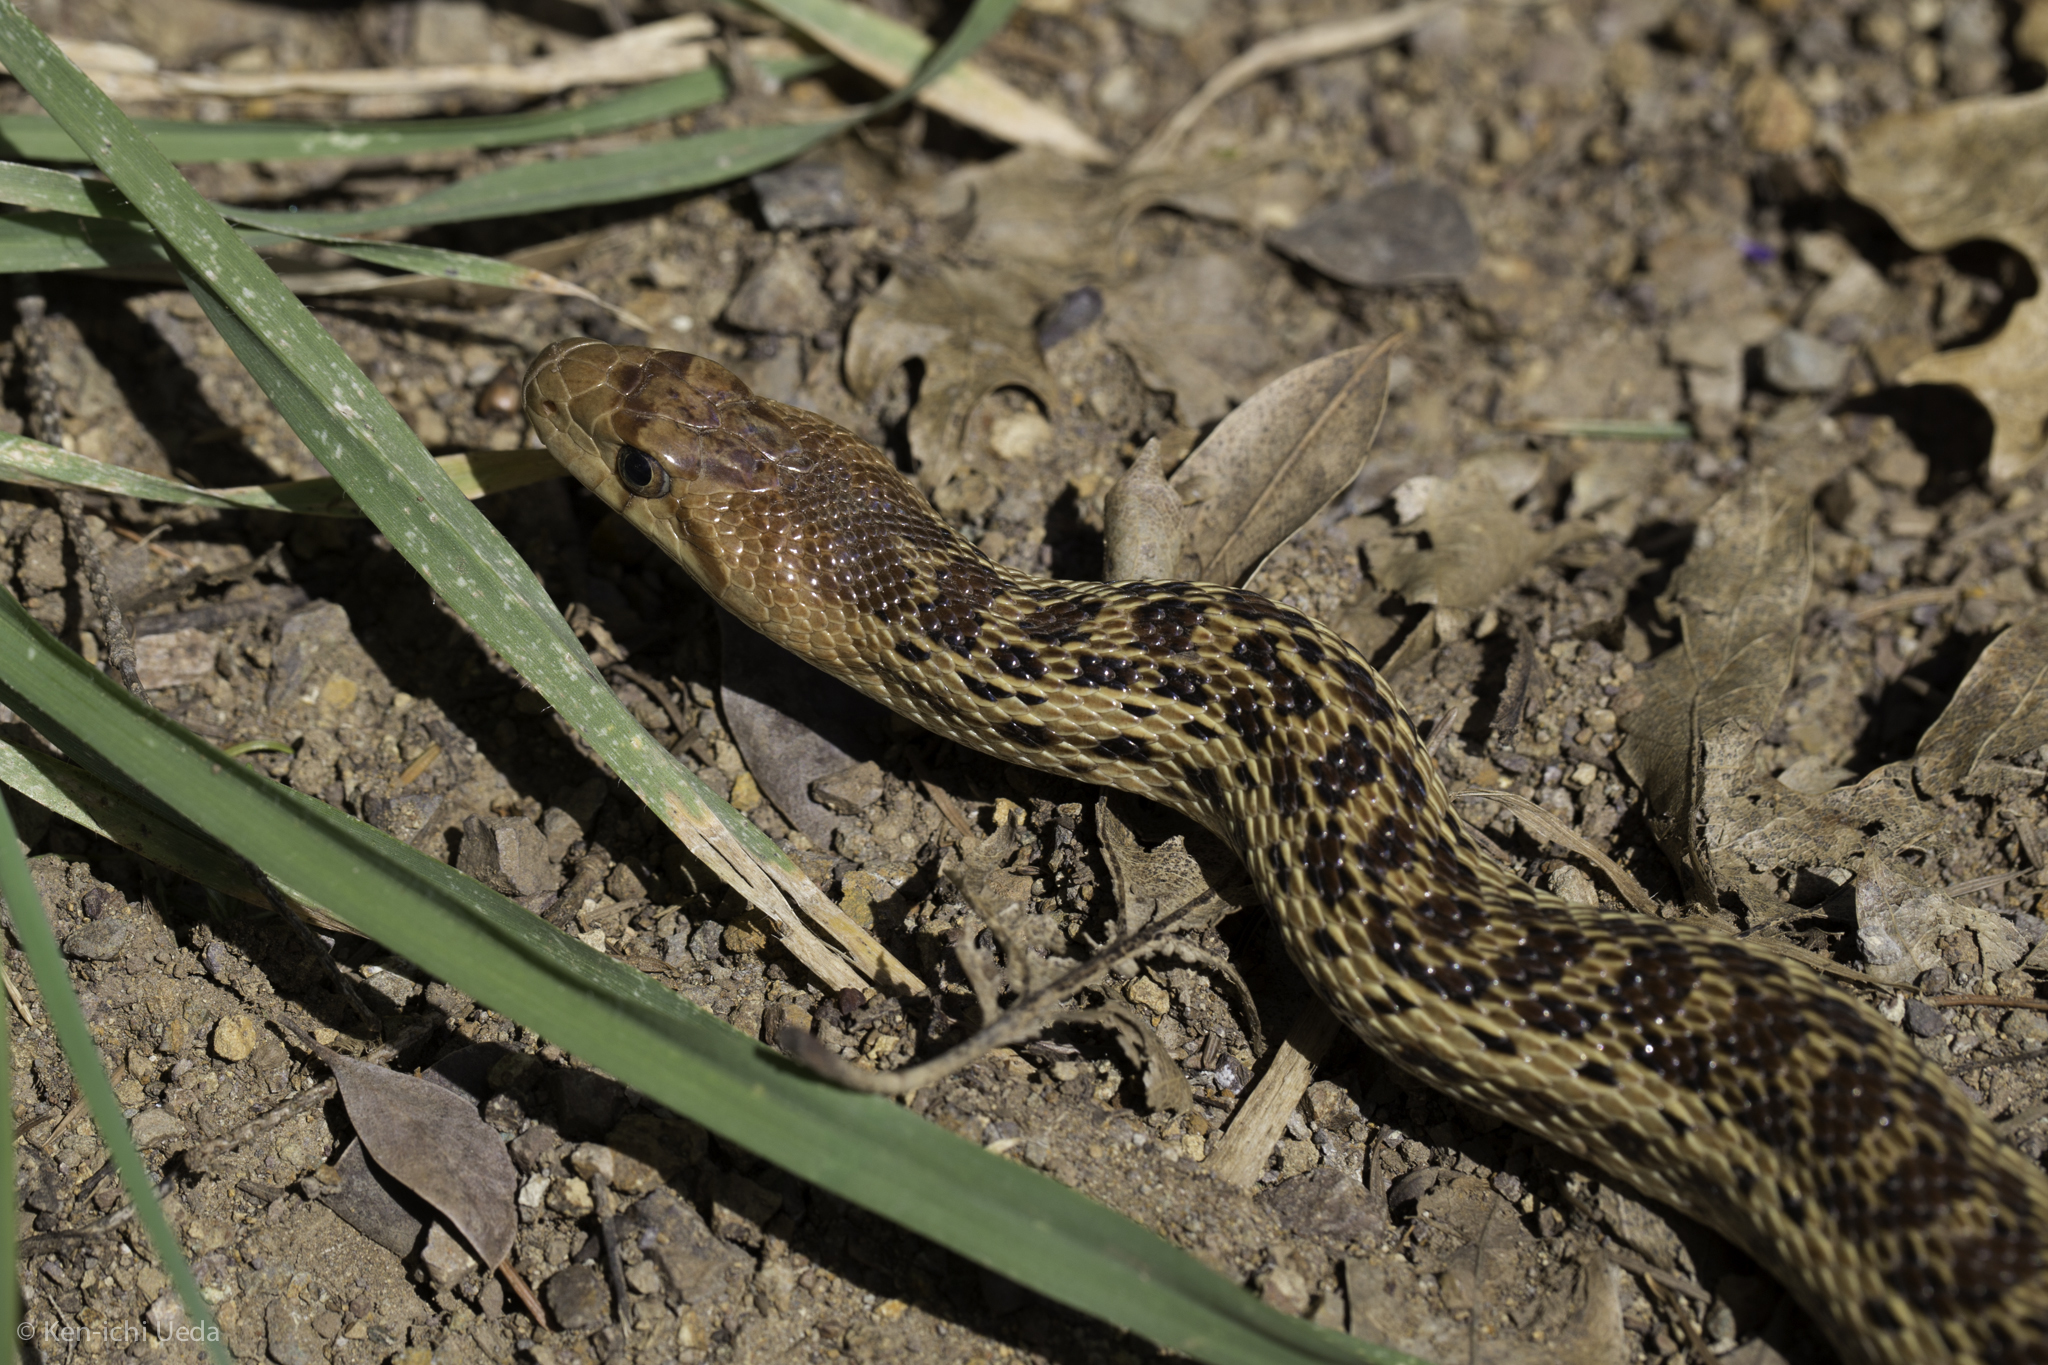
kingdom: Animalia
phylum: Chordata
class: Squamata
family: Colubridae
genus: Pituophis
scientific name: Pituophis catenifer
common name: Gopher snake
